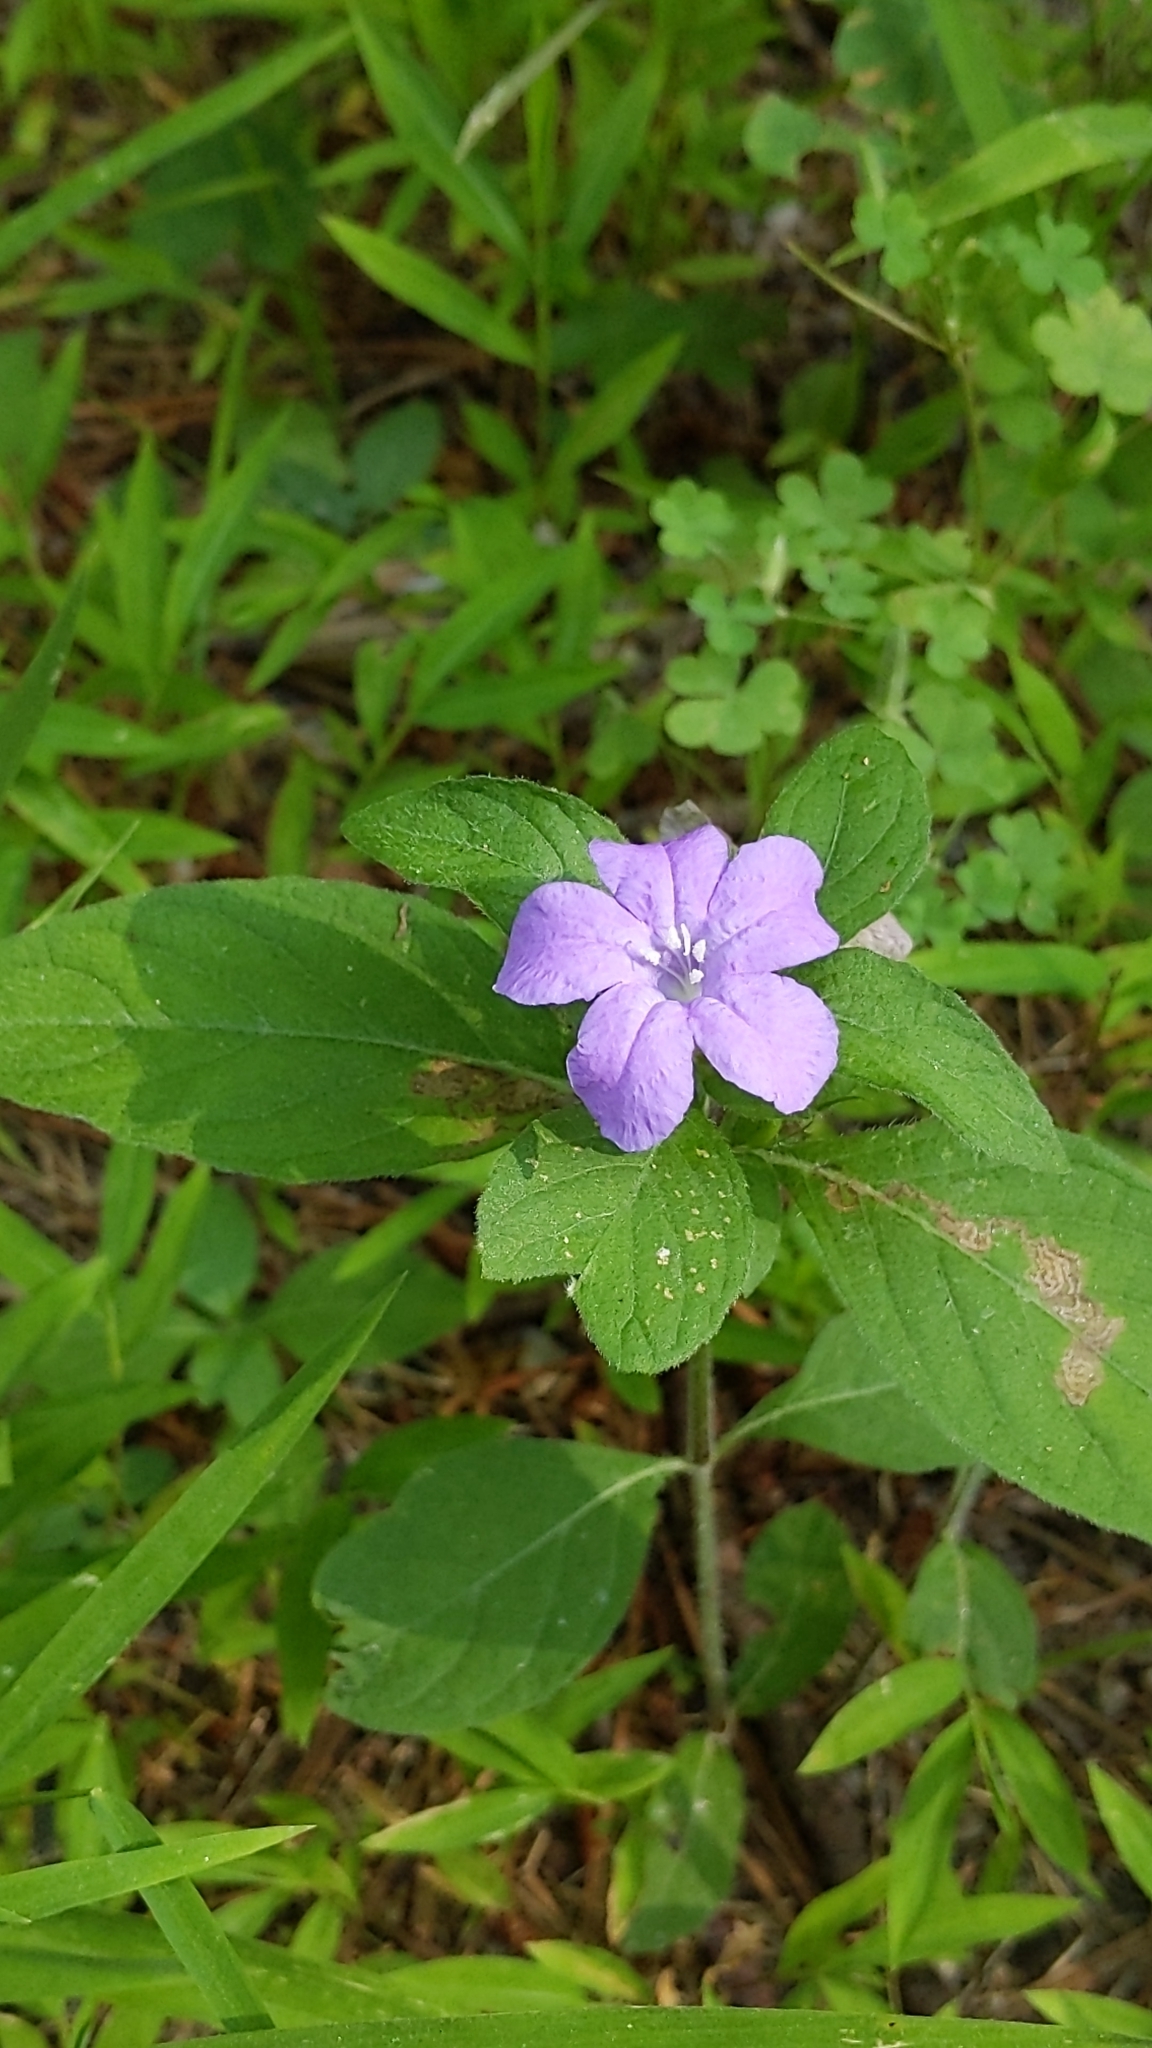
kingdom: Plantae
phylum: Tracheophyta
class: Magnoliopsida
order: Lamiales
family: Acanthaceae
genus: Ruellia
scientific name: Ruellia caroliniensis
